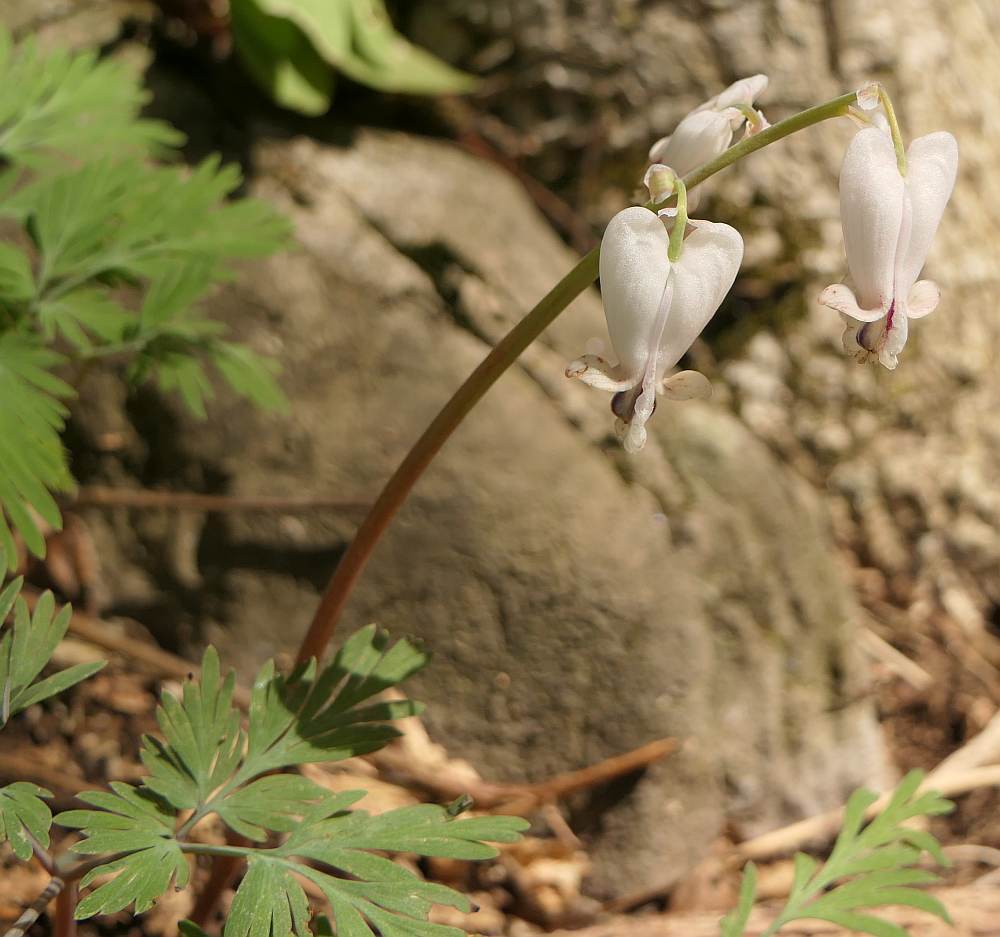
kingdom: Plantae
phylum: Tracheophyta
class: Magnoliopsida
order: Ranunculales
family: Papaveraceae
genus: Dicentra
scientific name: Dicentra canadensis
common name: Squirrel-corn
